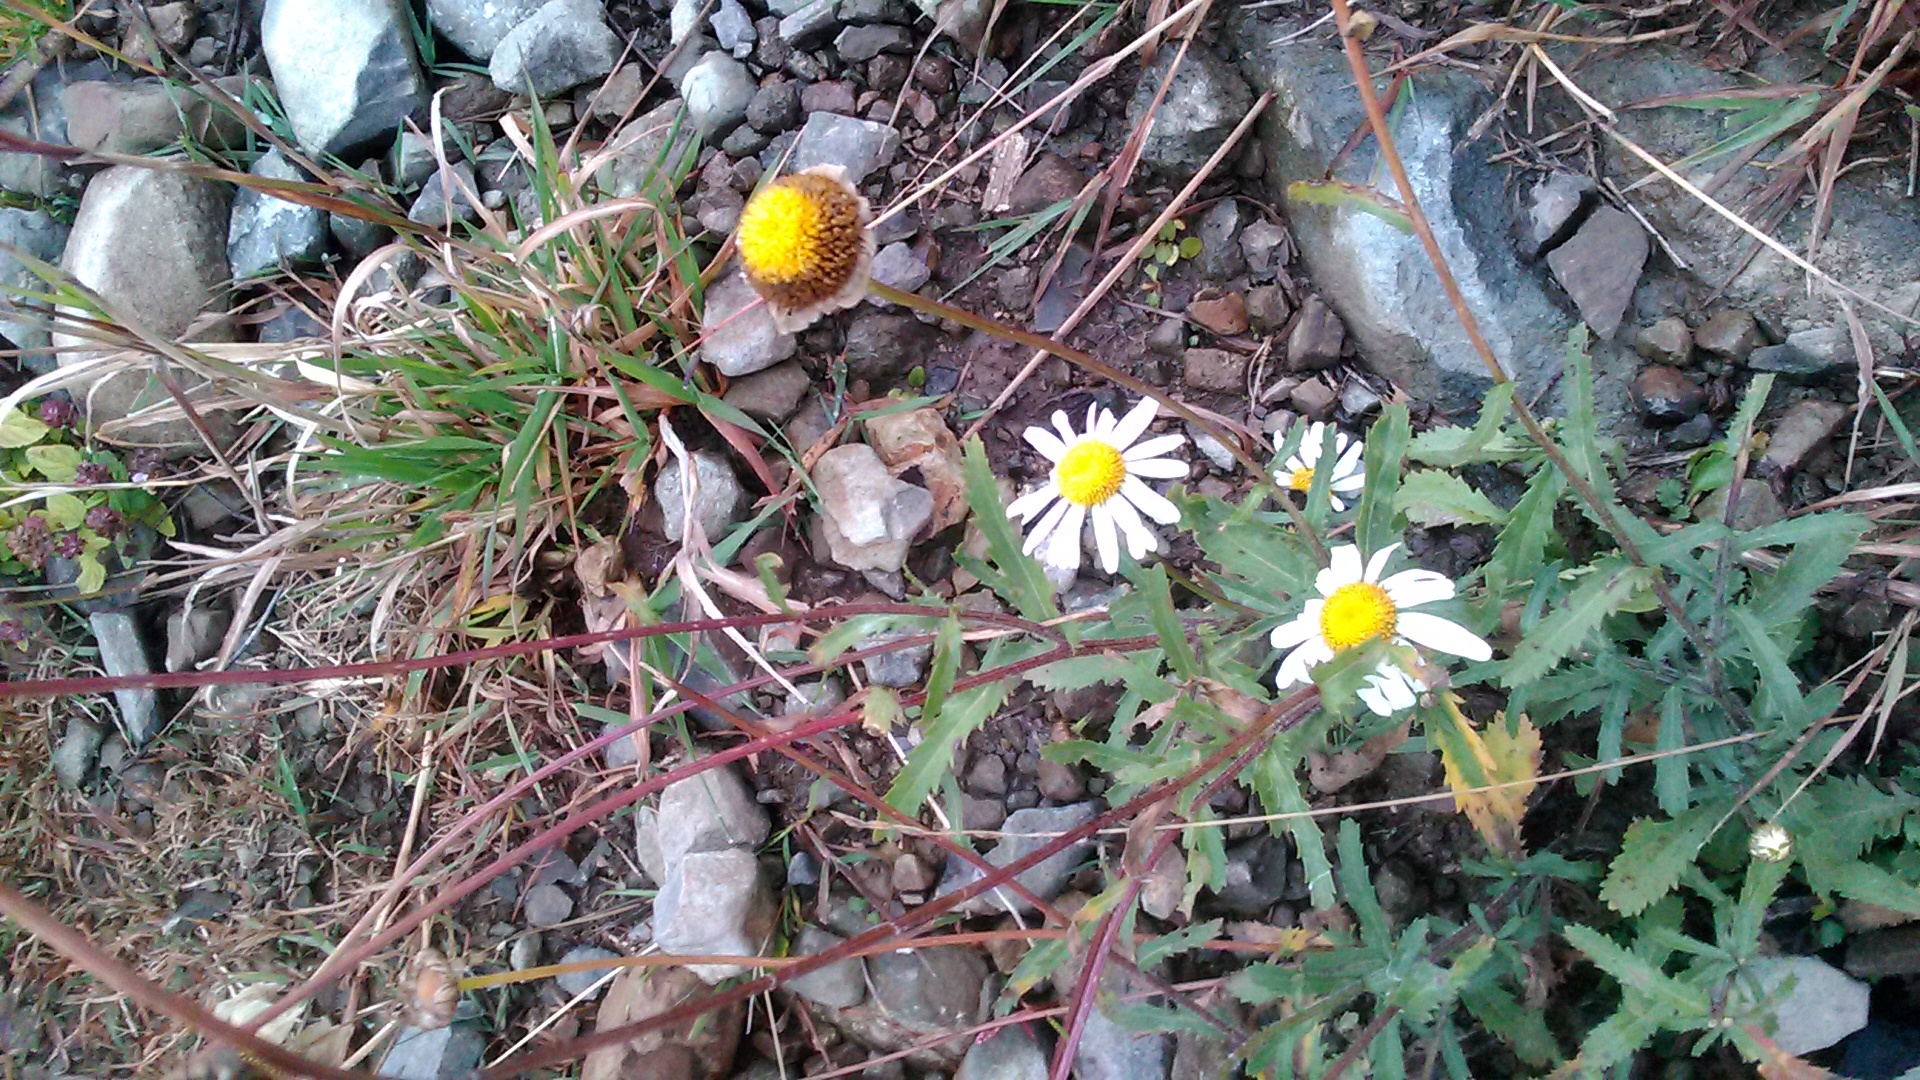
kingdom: Plantae
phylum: Tracheophyta
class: Magnoliopsida
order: Asterales
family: Asteraceae
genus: Leucanthemum
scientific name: Leucanthemum vulgare
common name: Oxeye daisy
